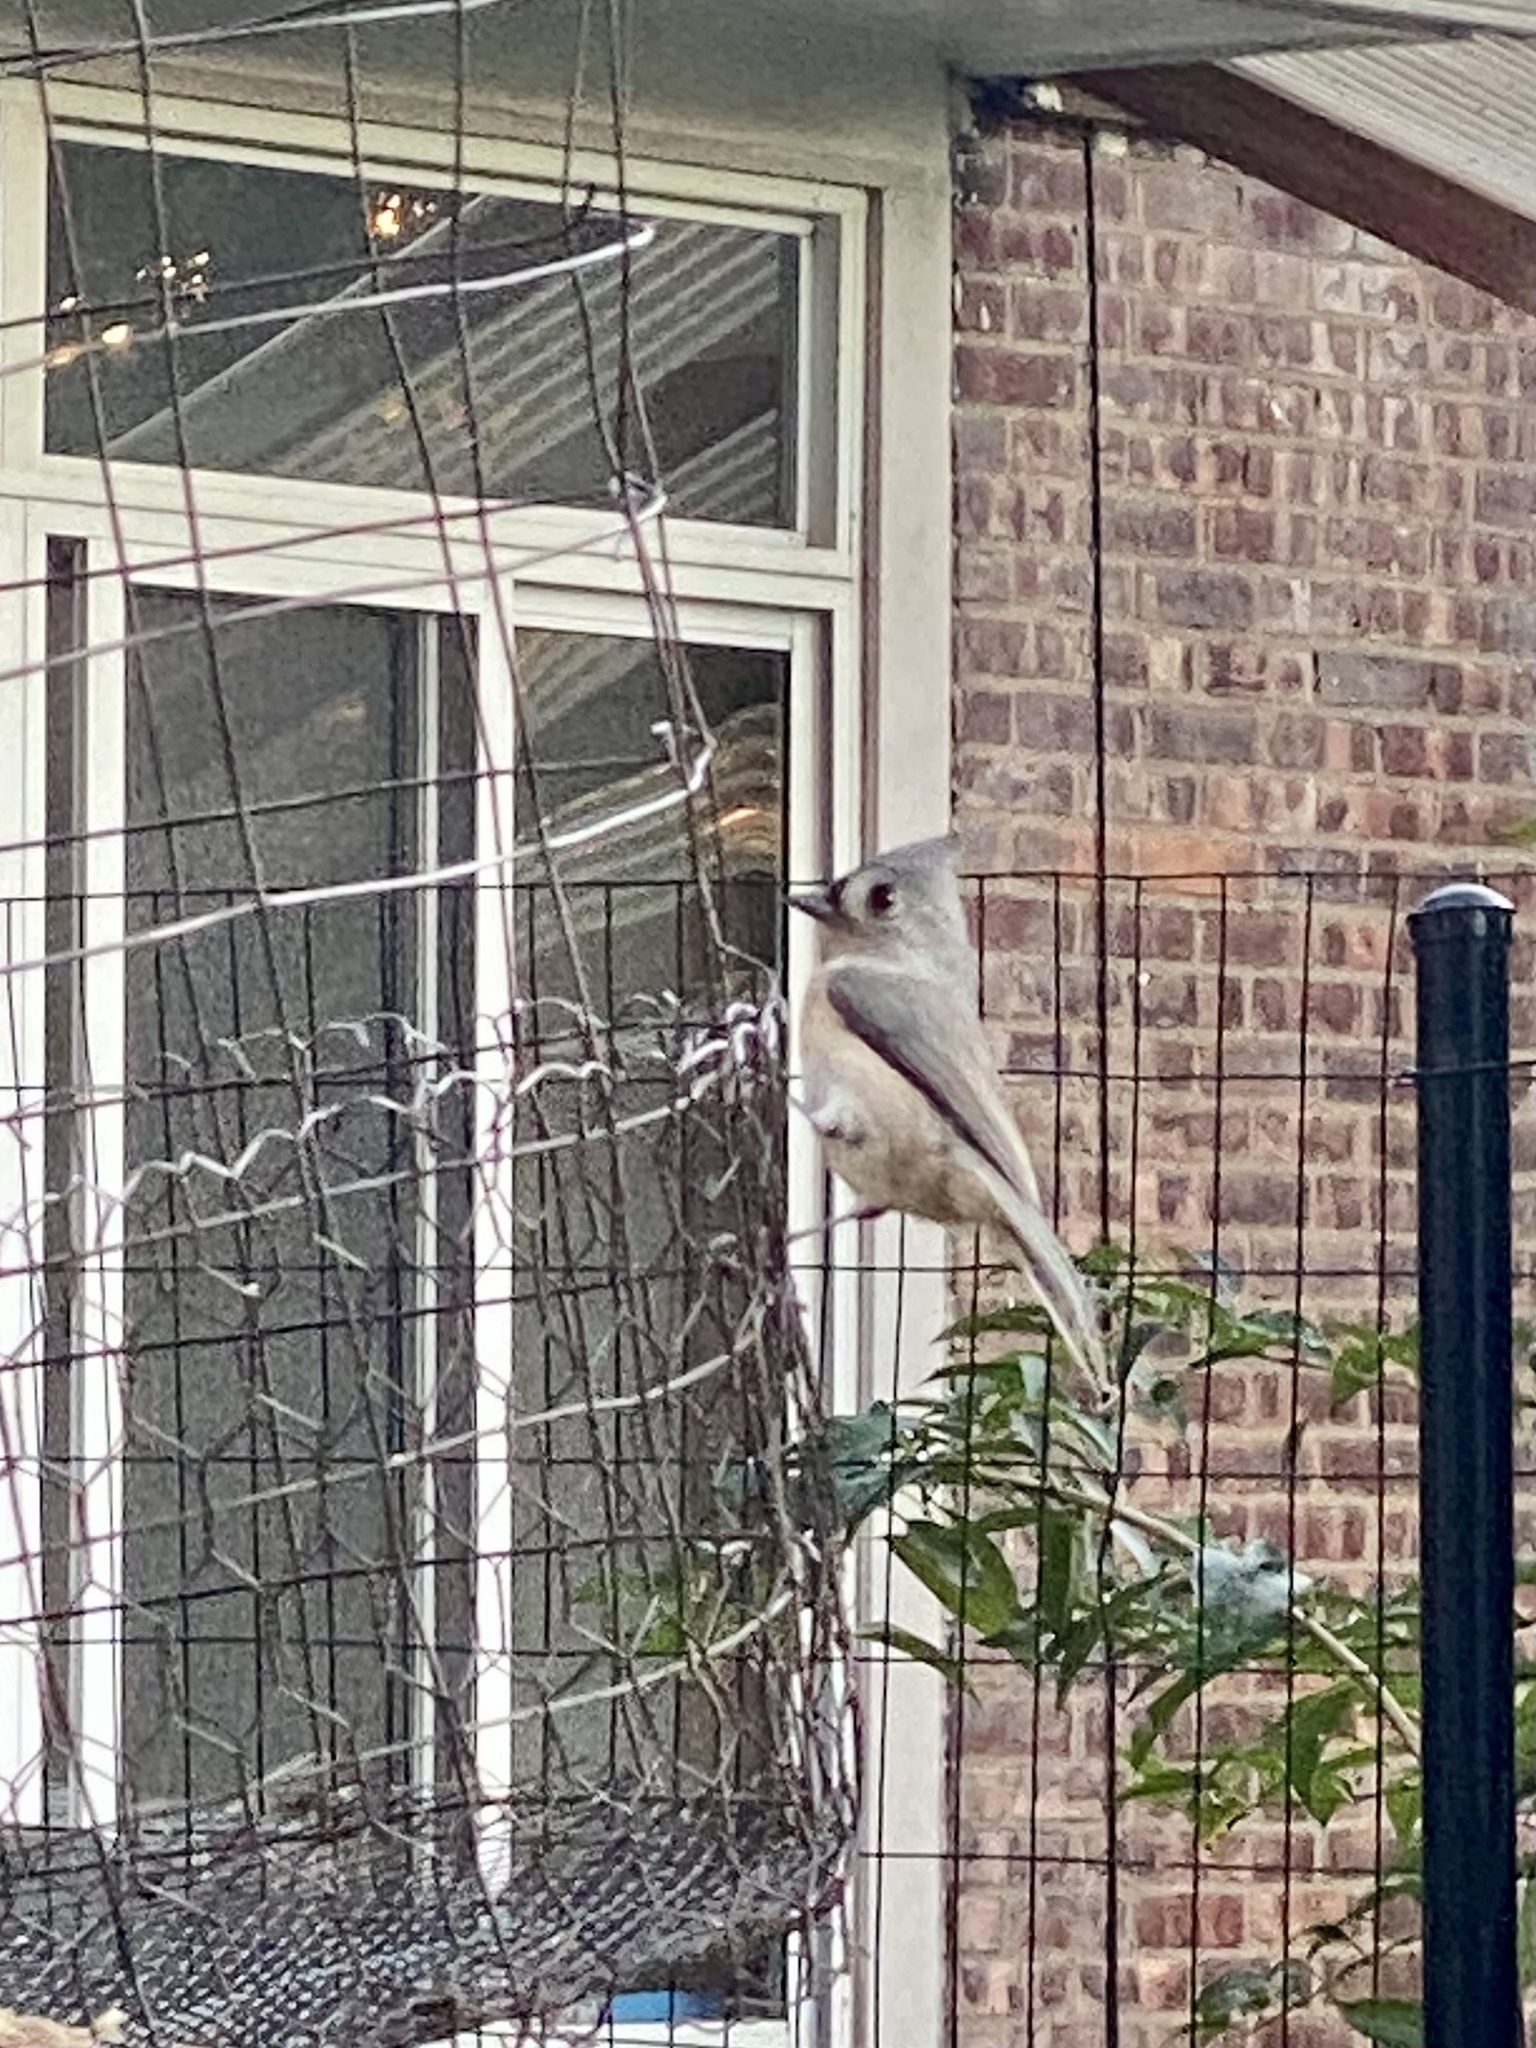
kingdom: Animalia
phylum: Chordata
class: Aves
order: Passeriformes
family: Paridae
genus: Baeolophus
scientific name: Baeolophus bicolor
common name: Tufted titmouse
